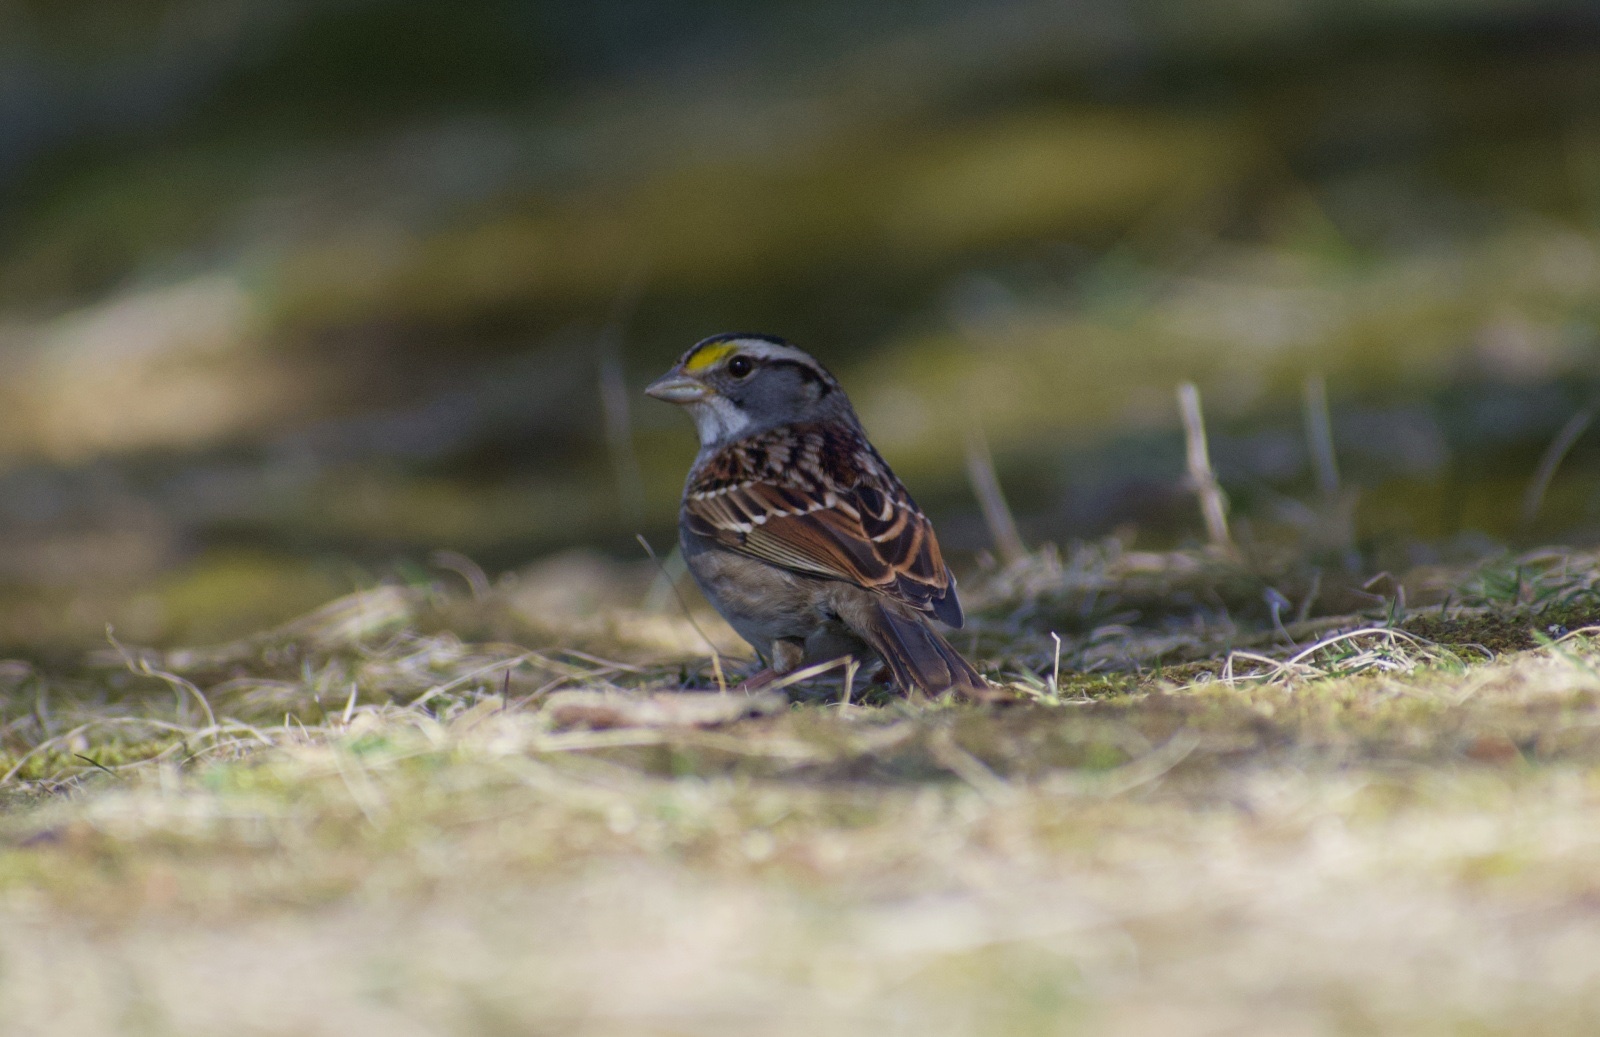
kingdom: Animalia
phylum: Chordata
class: Aves
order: Passeriformes
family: Passerellidae
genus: Zonotrichia
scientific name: Zonotrichia albicollis
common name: White-throated sparrow
